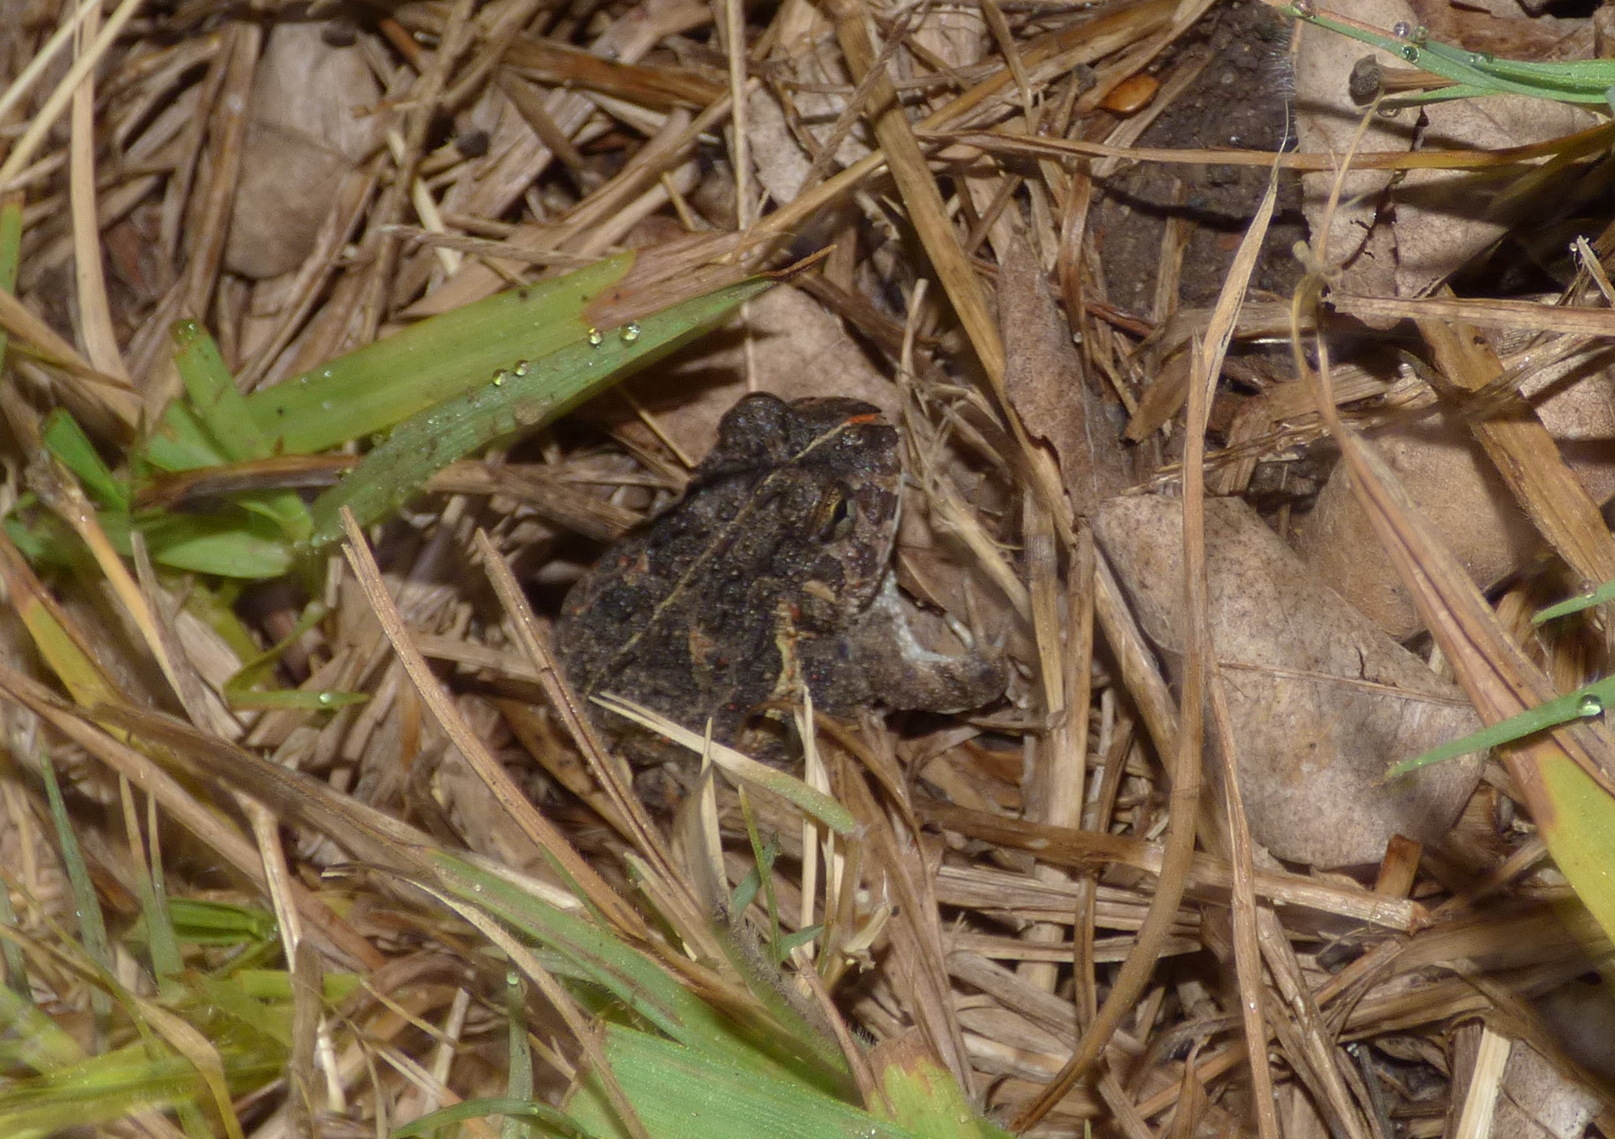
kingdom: Animalia
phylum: Chordata
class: Amphibia
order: Anura
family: Odontophrynidae
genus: Odontophrynus
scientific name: Odontophrynus
